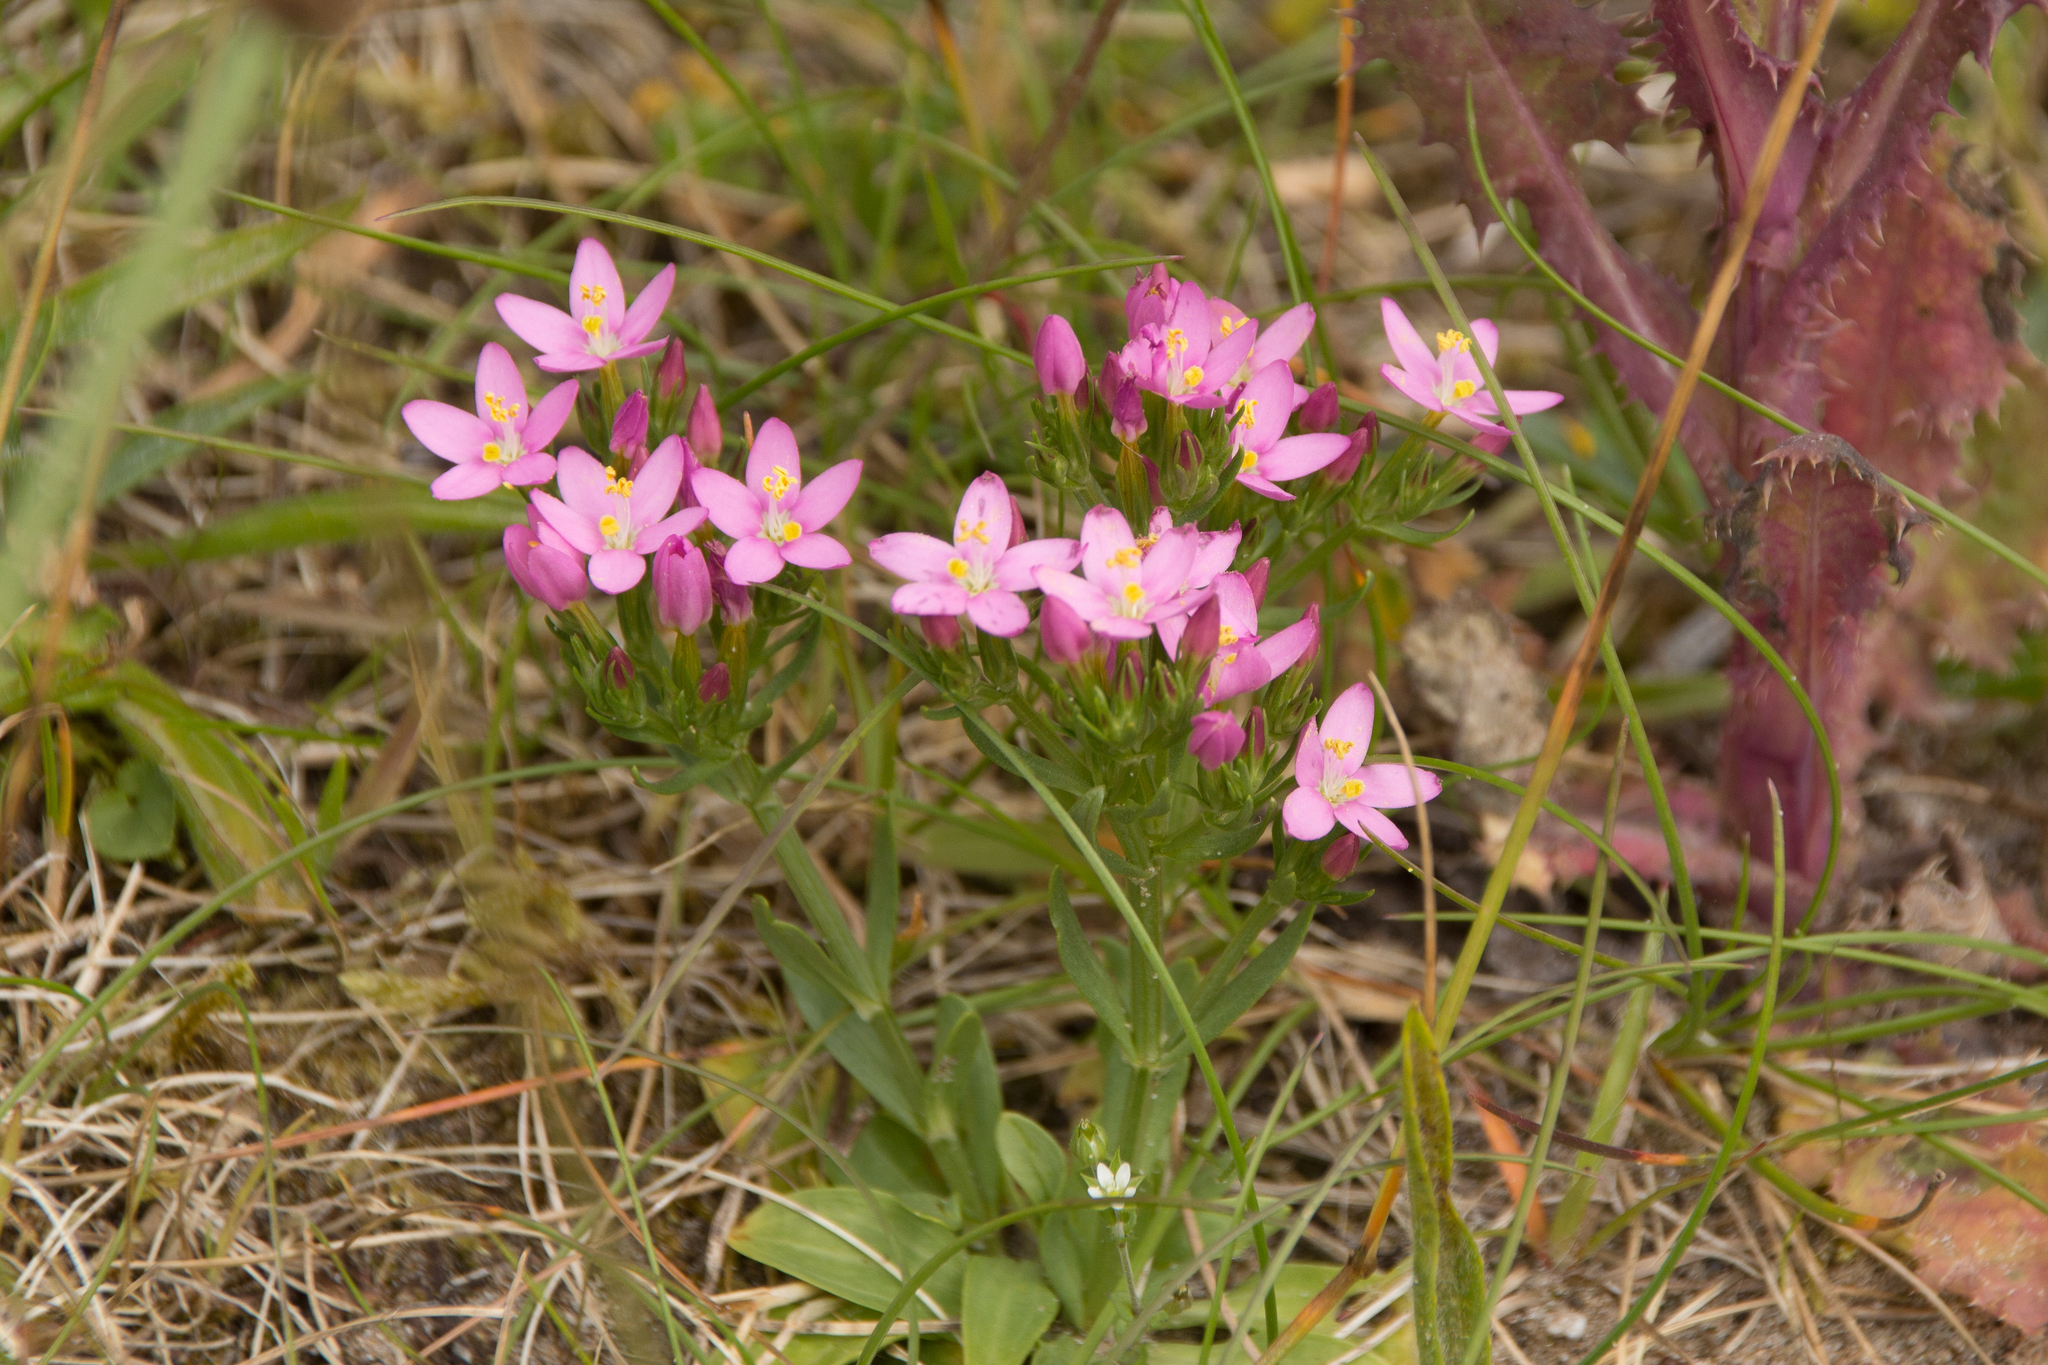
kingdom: Plantae
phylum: Tracheophyta
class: Magnoliopsida
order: Gentianales
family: Gentianaceae
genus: Centaurium
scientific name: Centaurium erythraea
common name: Common centaury
